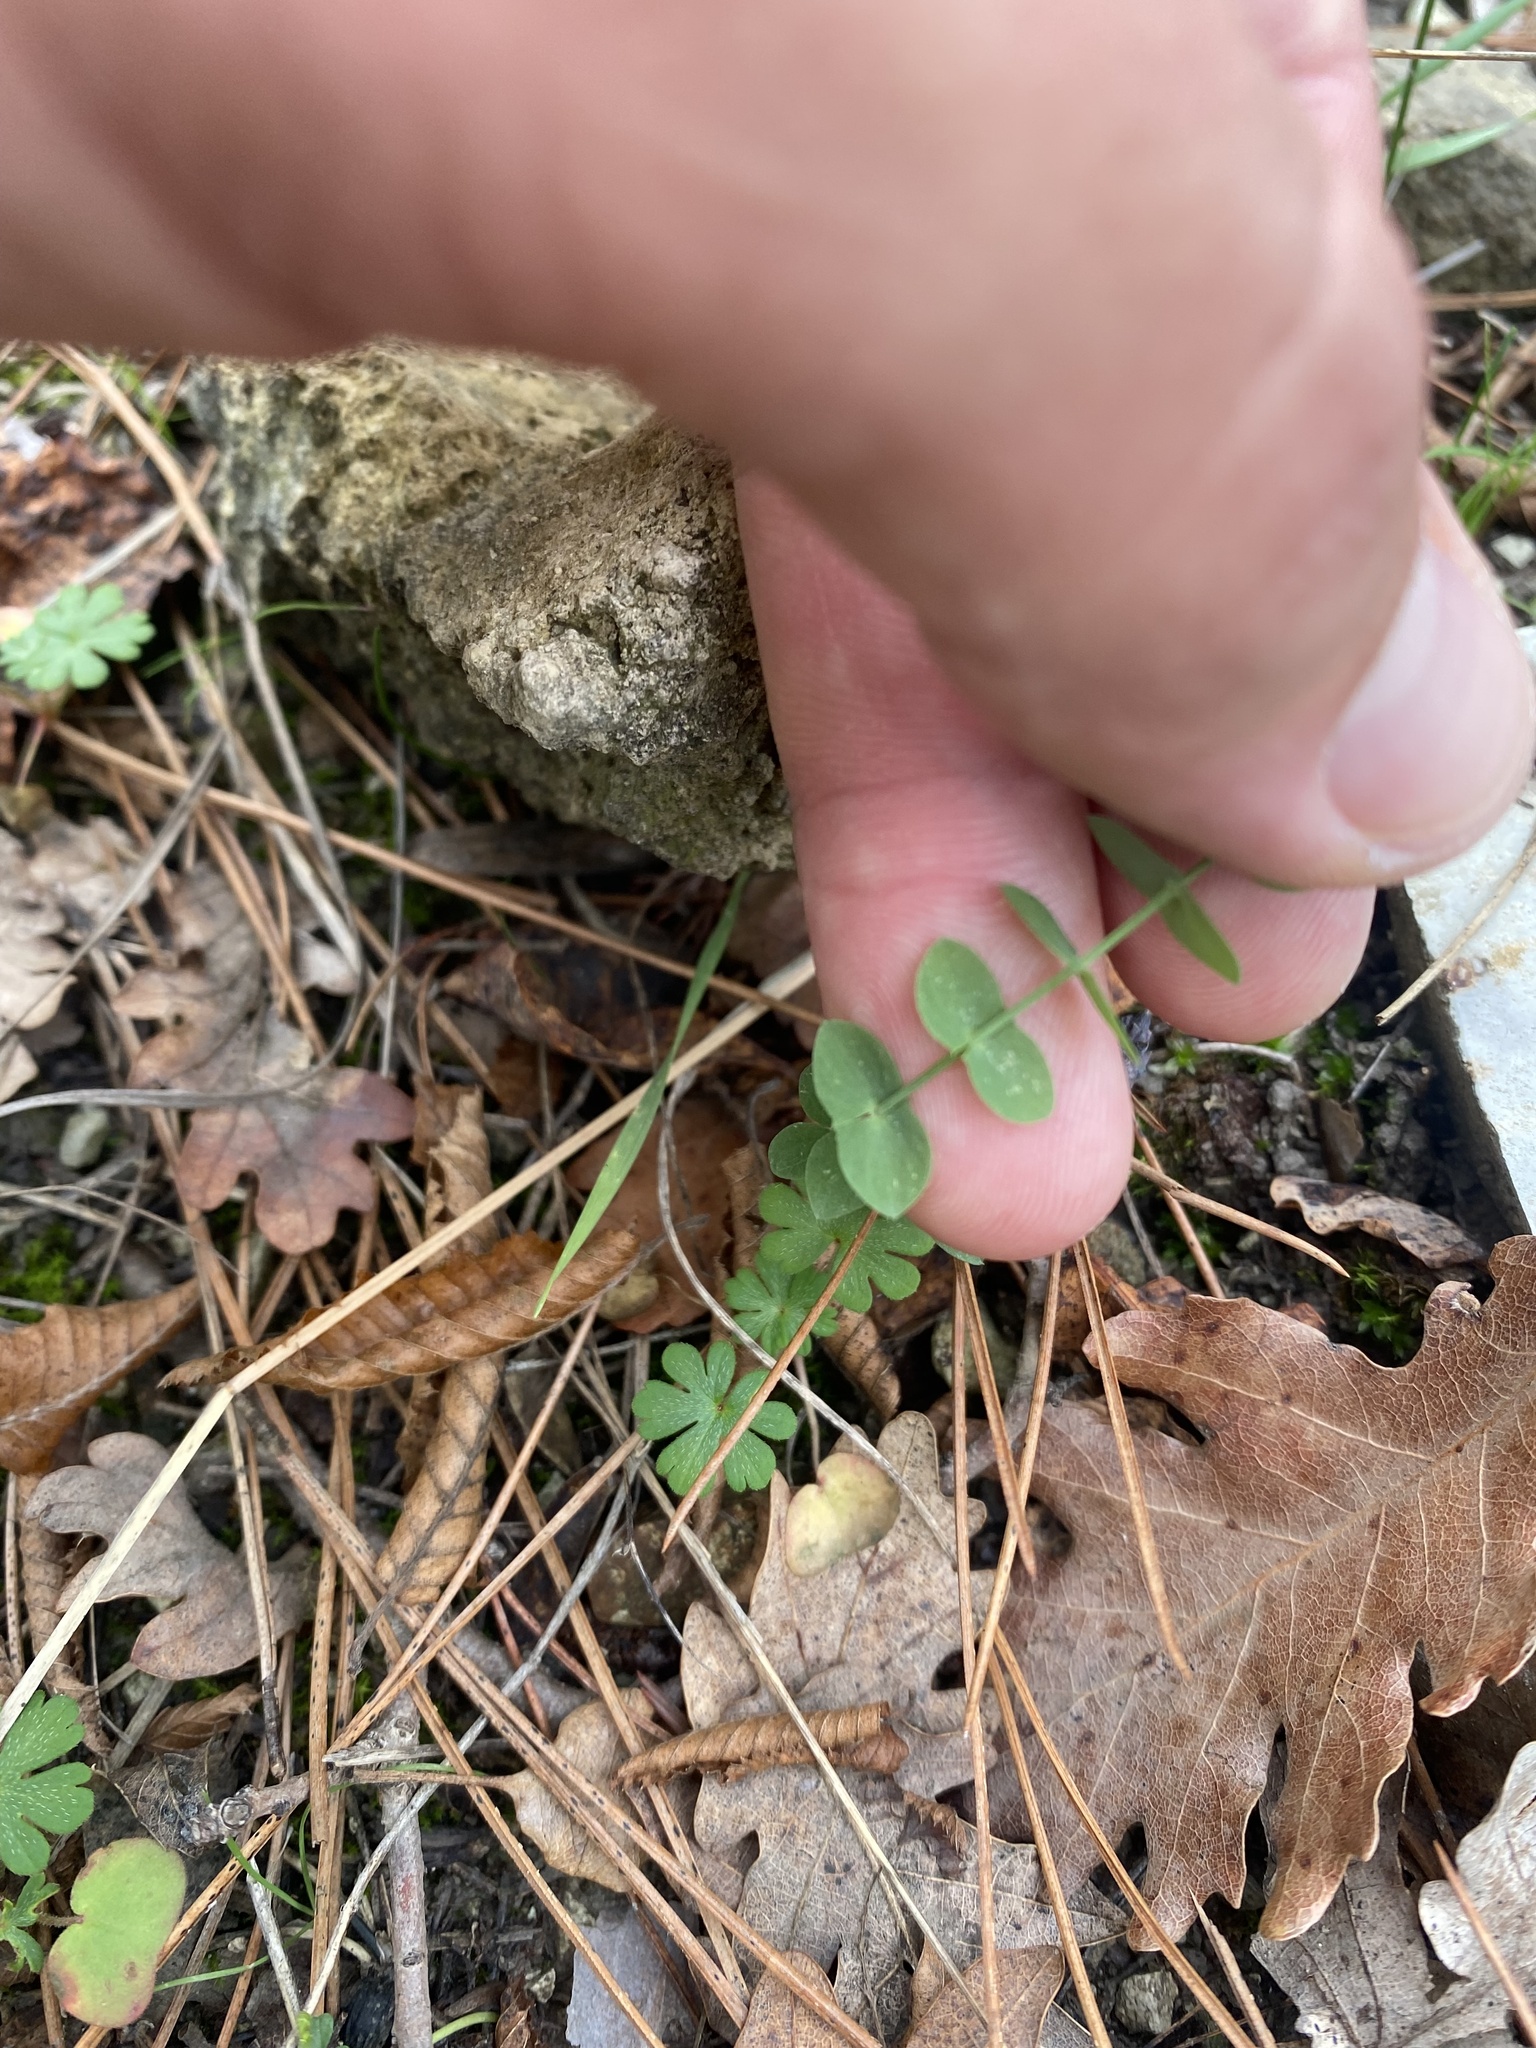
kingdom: Plantae
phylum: Tracheophyta
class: Magnoliopsida
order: Fabales
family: Fabaceae
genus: Lathyrus
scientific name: Lathyrus aphaca
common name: Yellow vetchling
